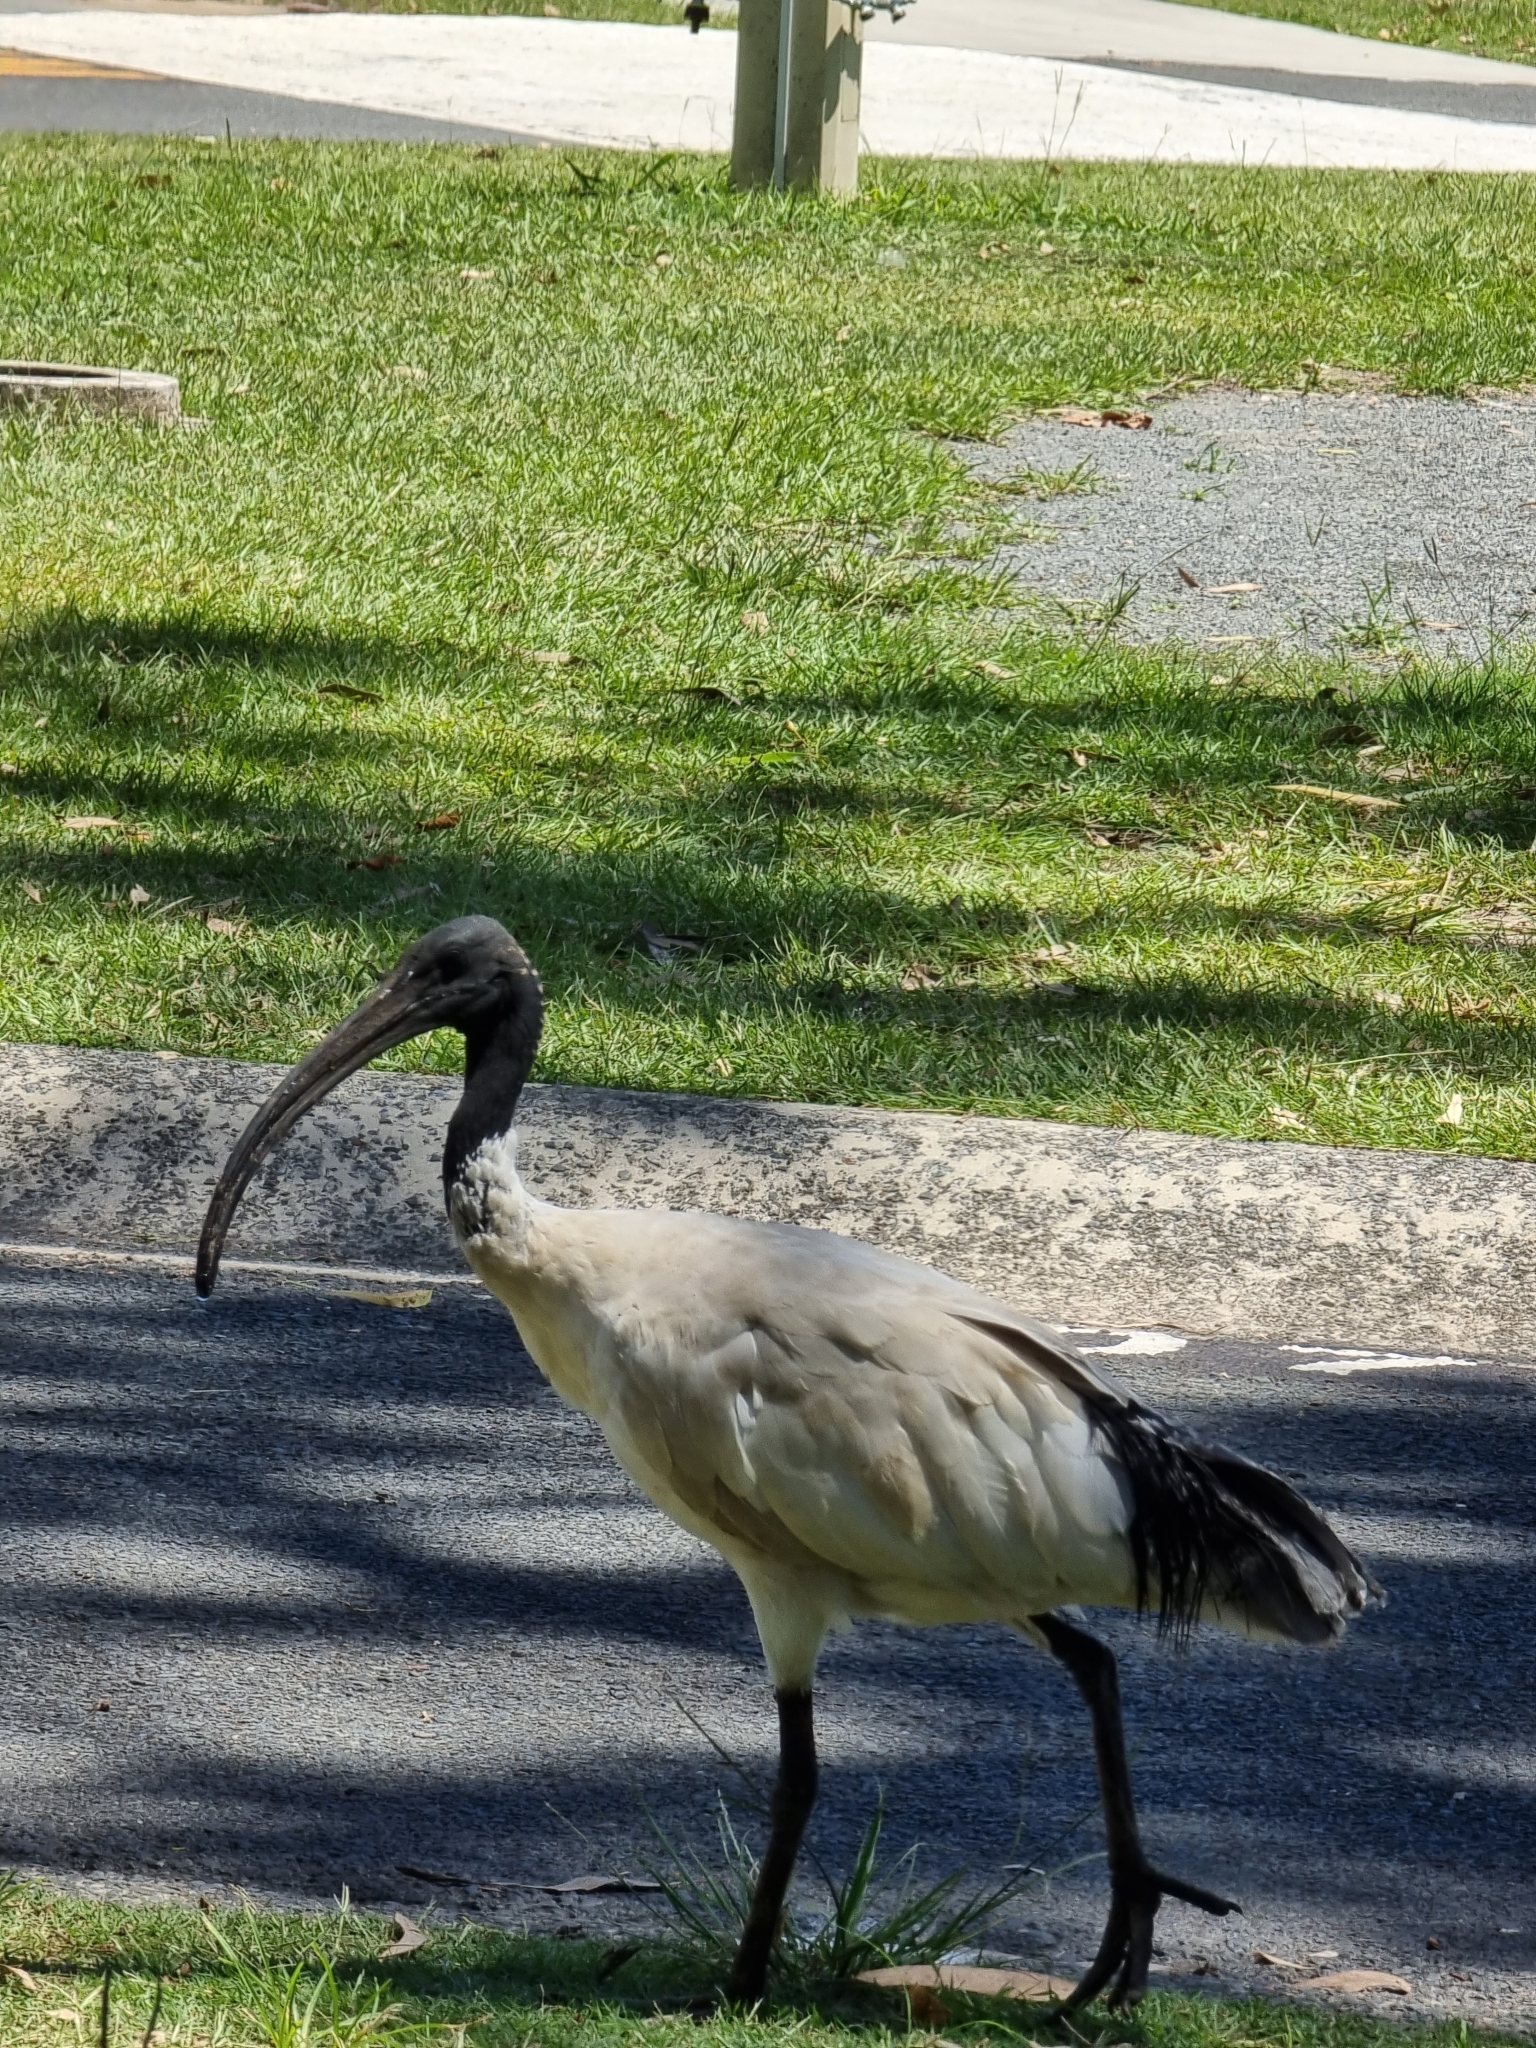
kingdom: Animalia
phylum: Chordata
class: Aves
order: Pelecaniformes
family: Threskiornithidae
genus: Threskiornis
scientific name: Threskiornis molucca
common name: Australian white ibis
